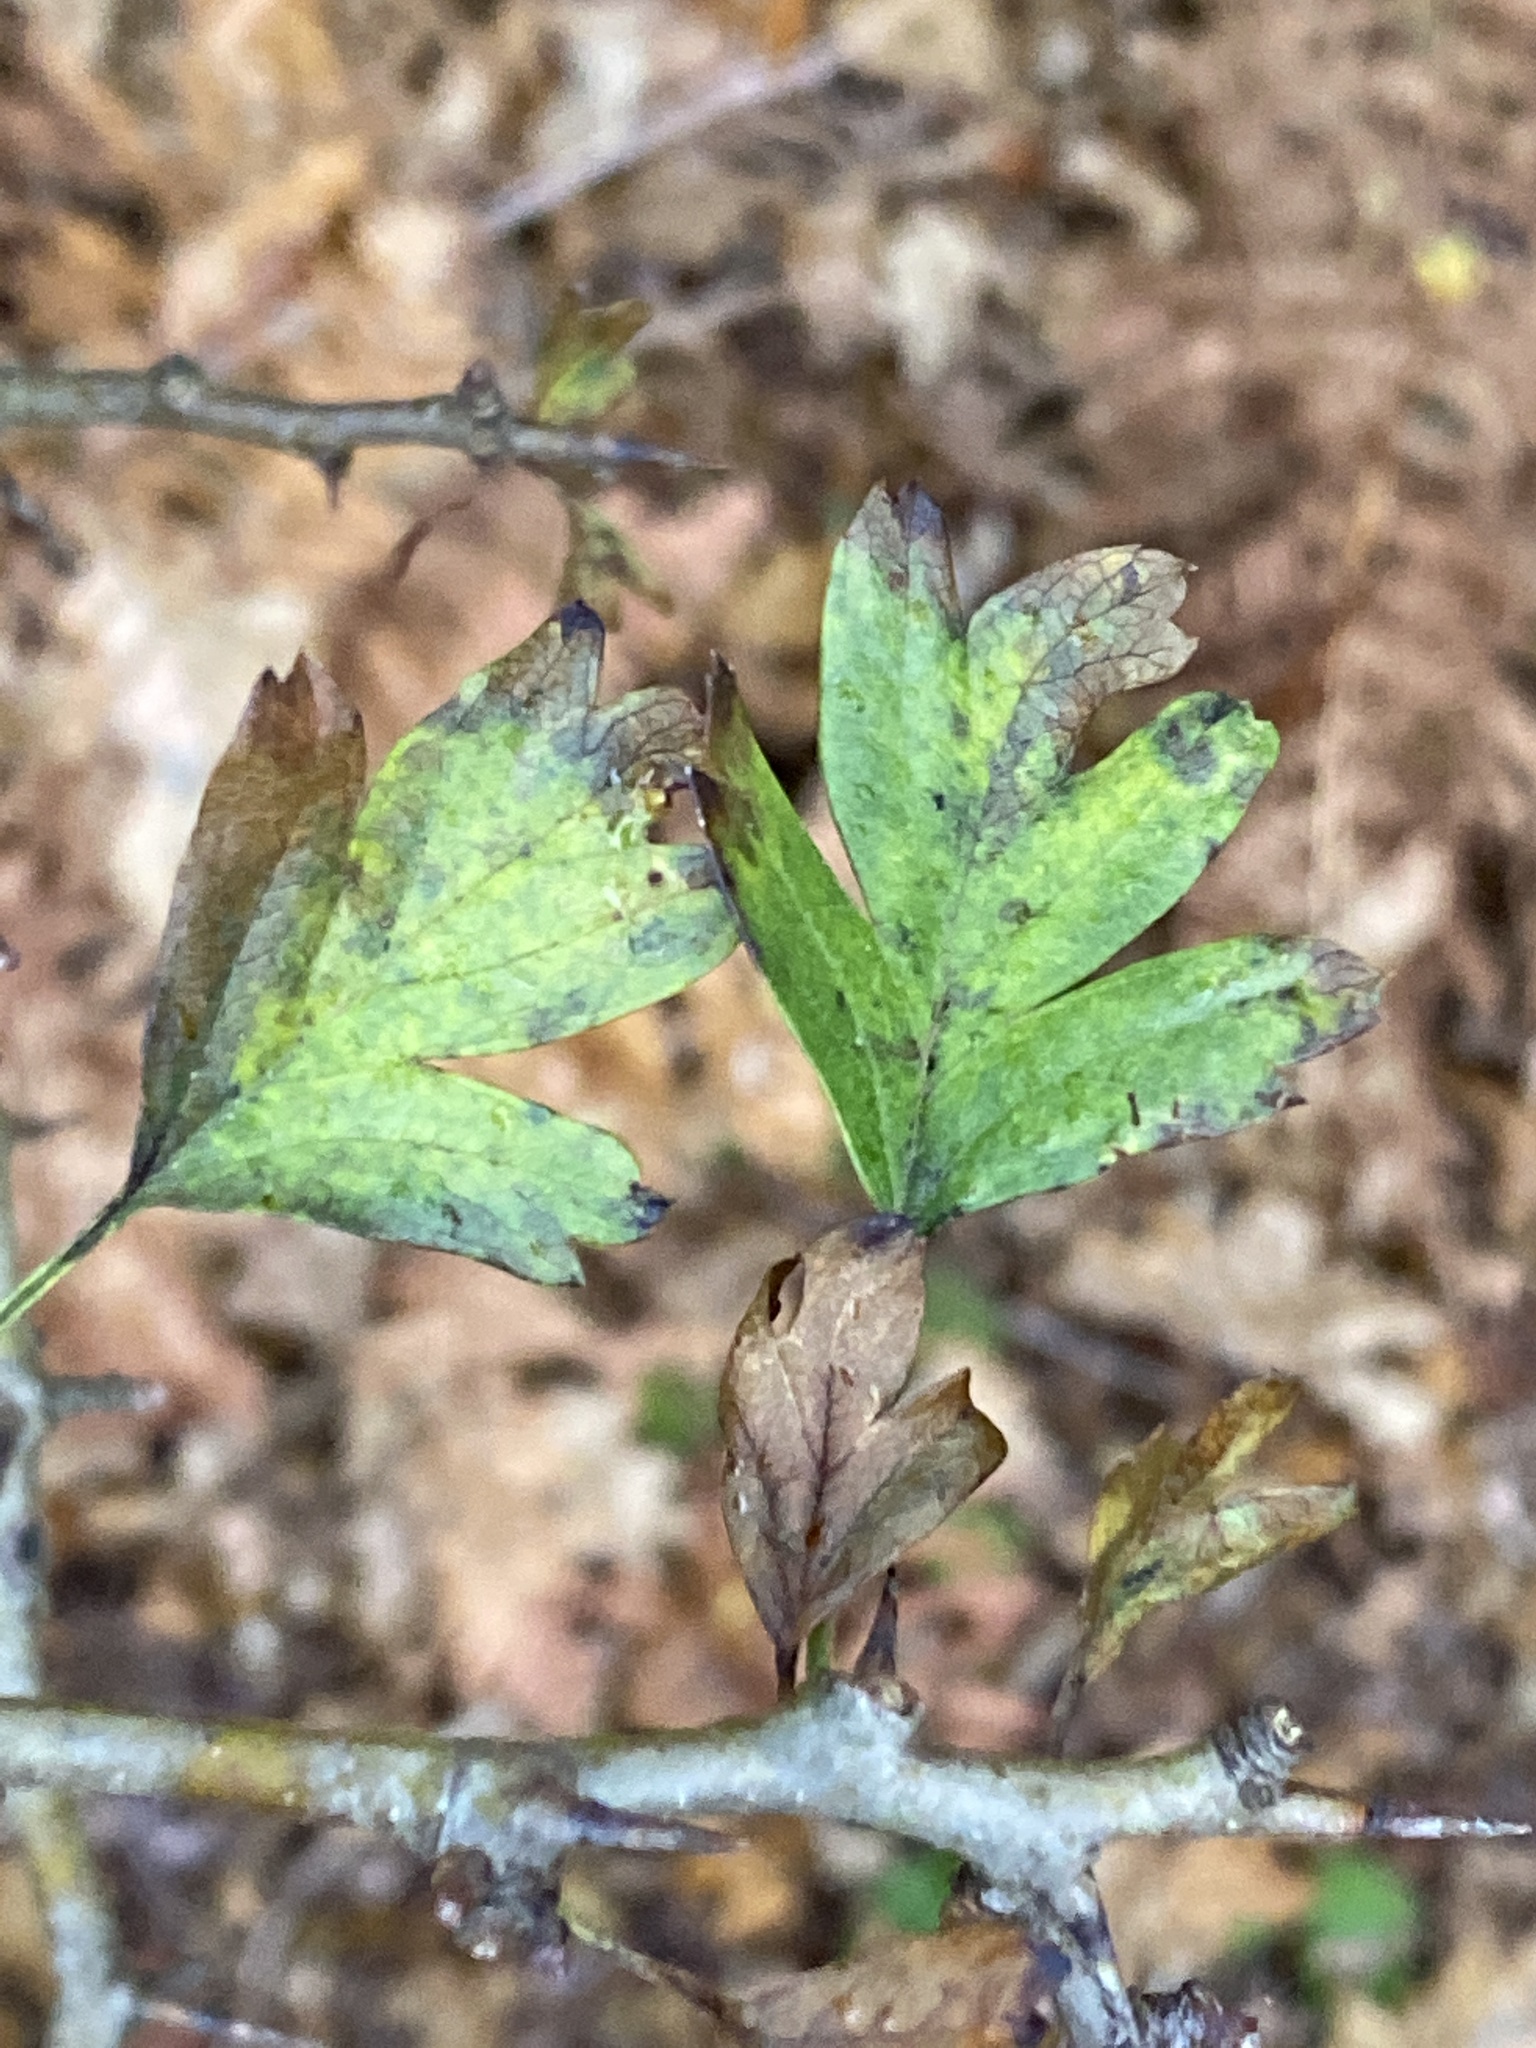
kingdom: Plantae
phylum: Tracheophyta
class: Magnoliopsida
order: Rosales
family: Rosaceae
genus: Crataegus
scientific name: Crataegus monogyna
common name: Hawthorn
